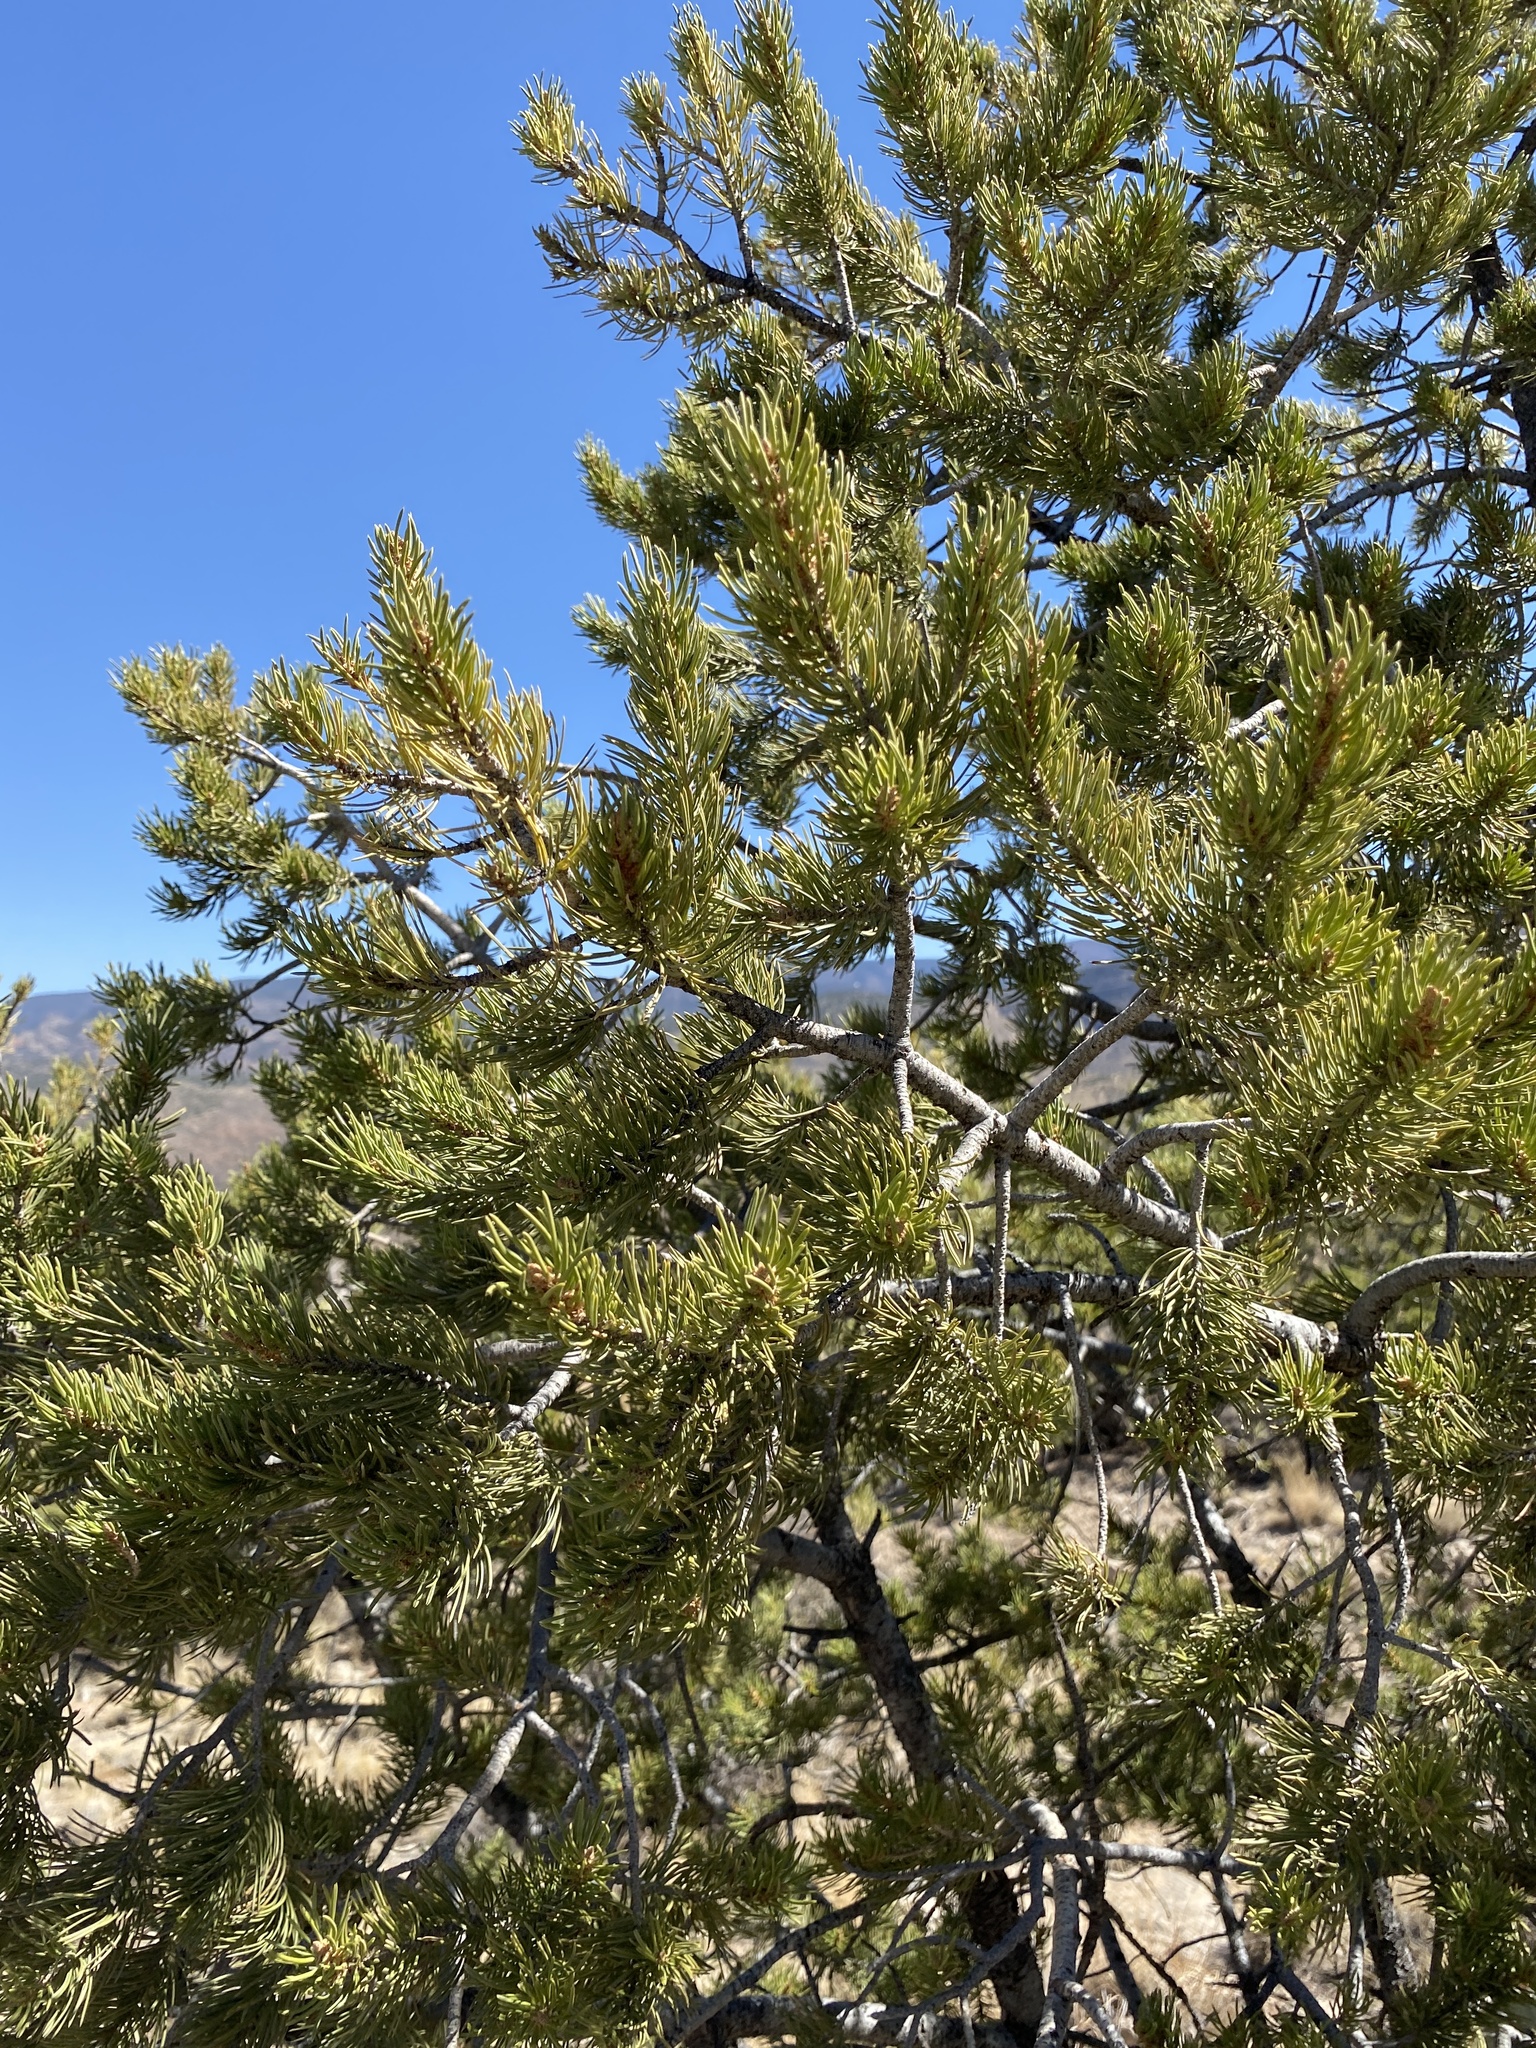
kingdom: Plantae
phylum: Tracheophyta
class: Pinopsida
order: Pinales
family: Pinaceae
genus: Pinus
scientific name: Pinus edulis
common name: Colorado pinyon
